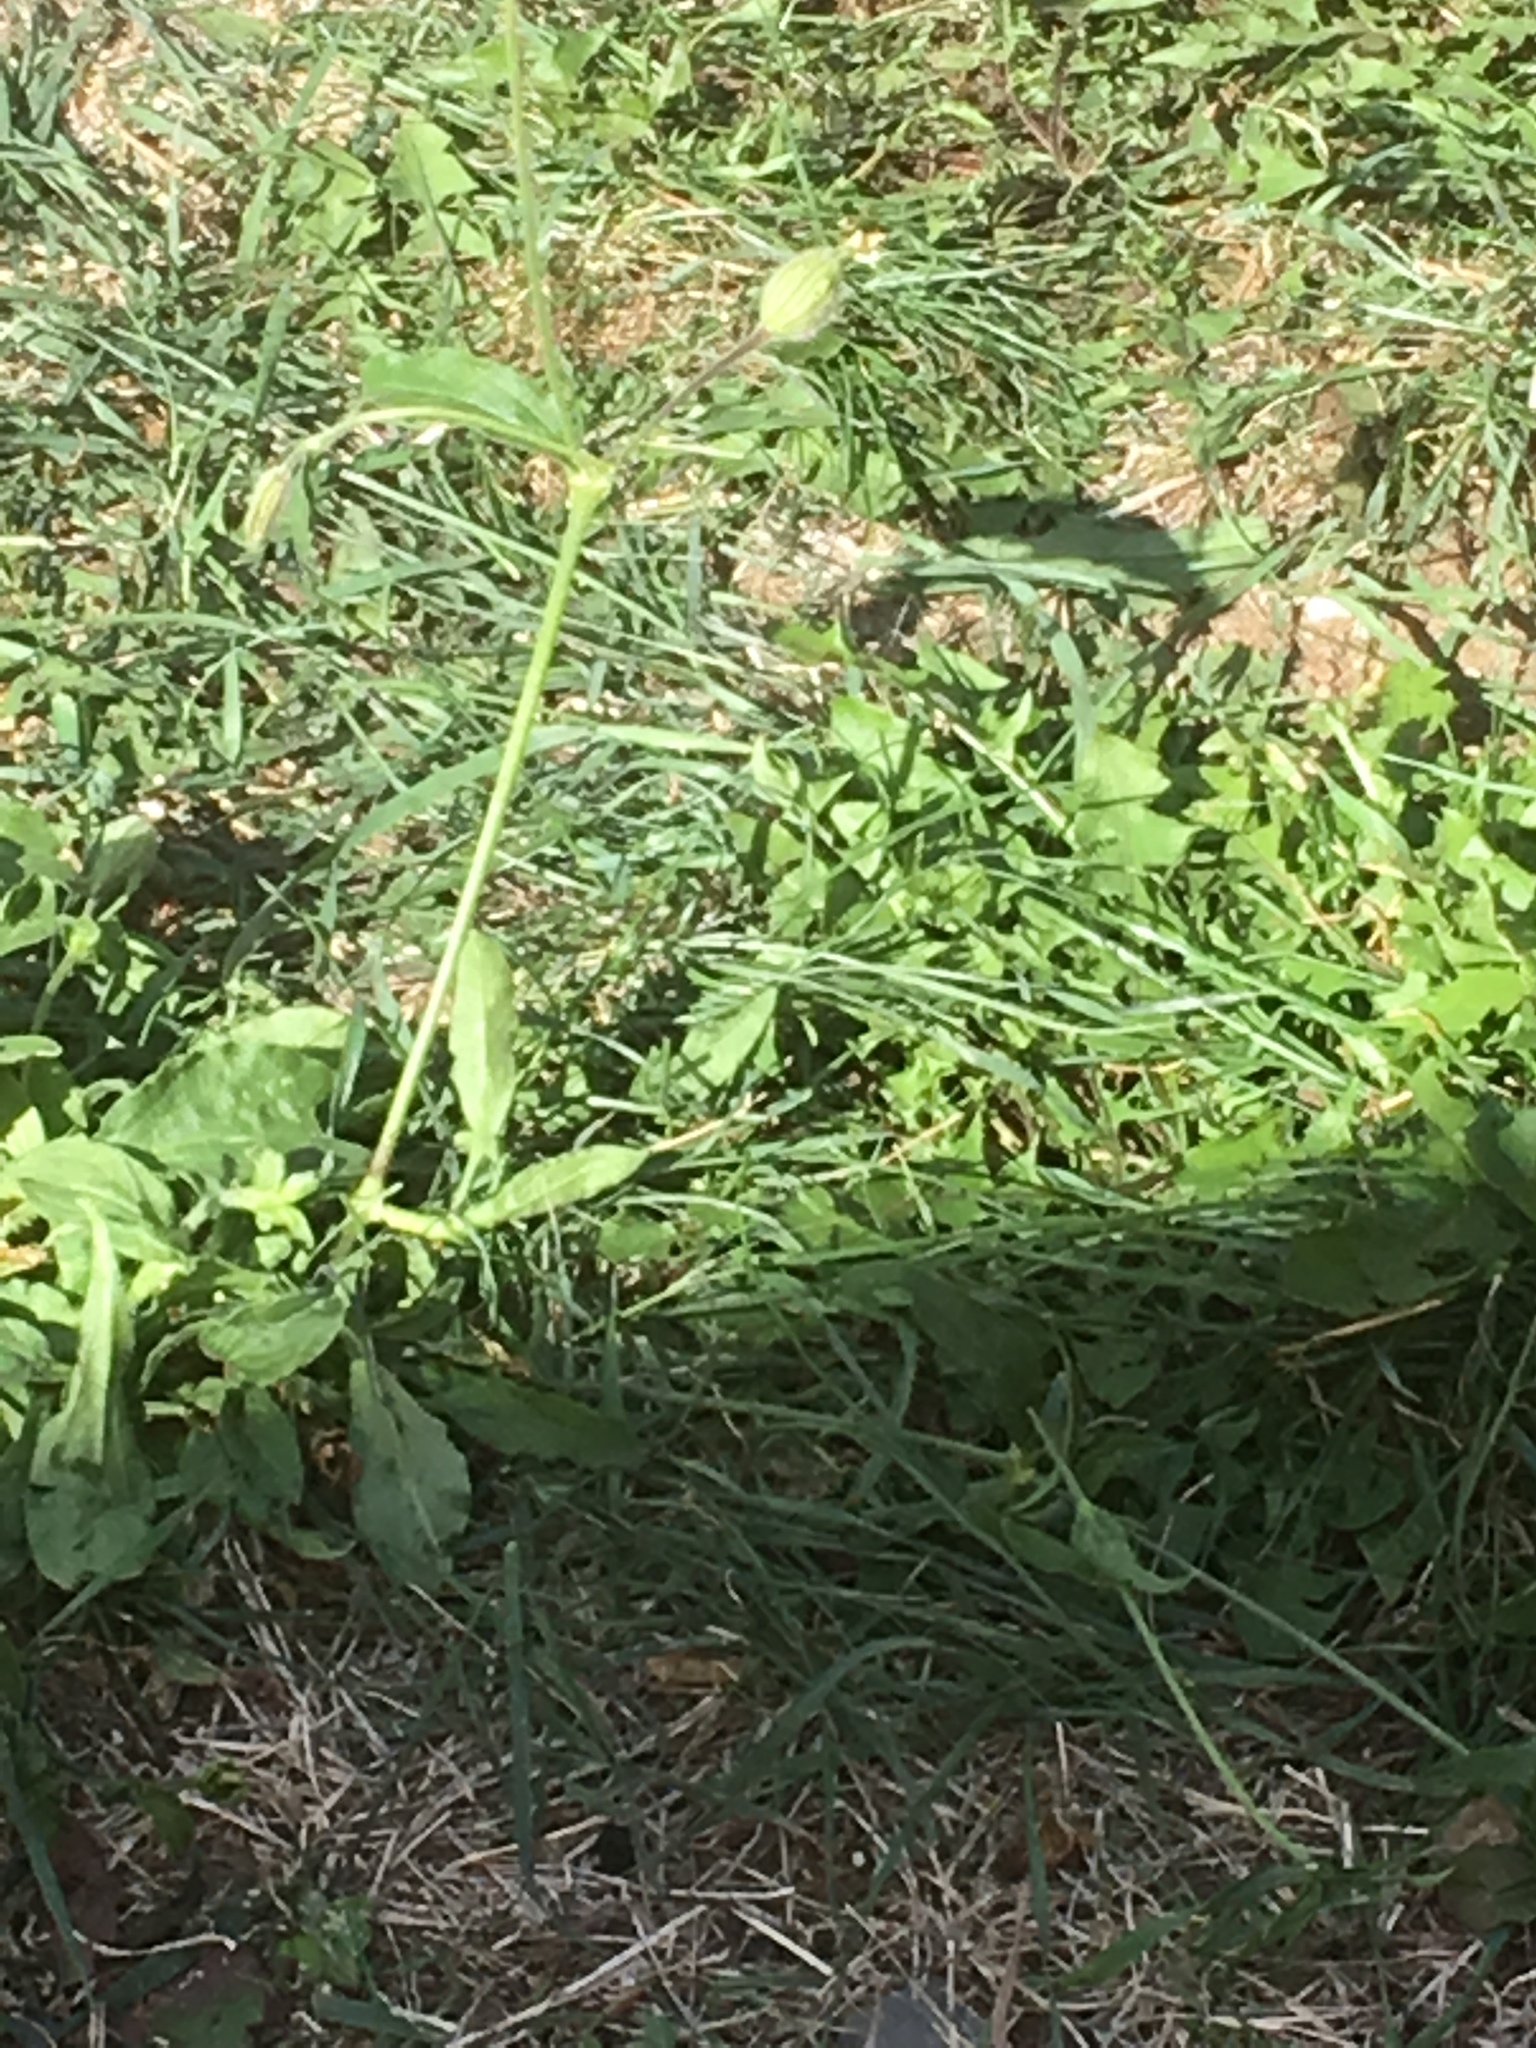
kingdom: Plantae
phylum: Tracheophyta
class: Magnoliopsida
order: Caryophyllales
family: Caryophyllaceae
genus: Silene
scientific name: Silene latifolia
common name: White campion
